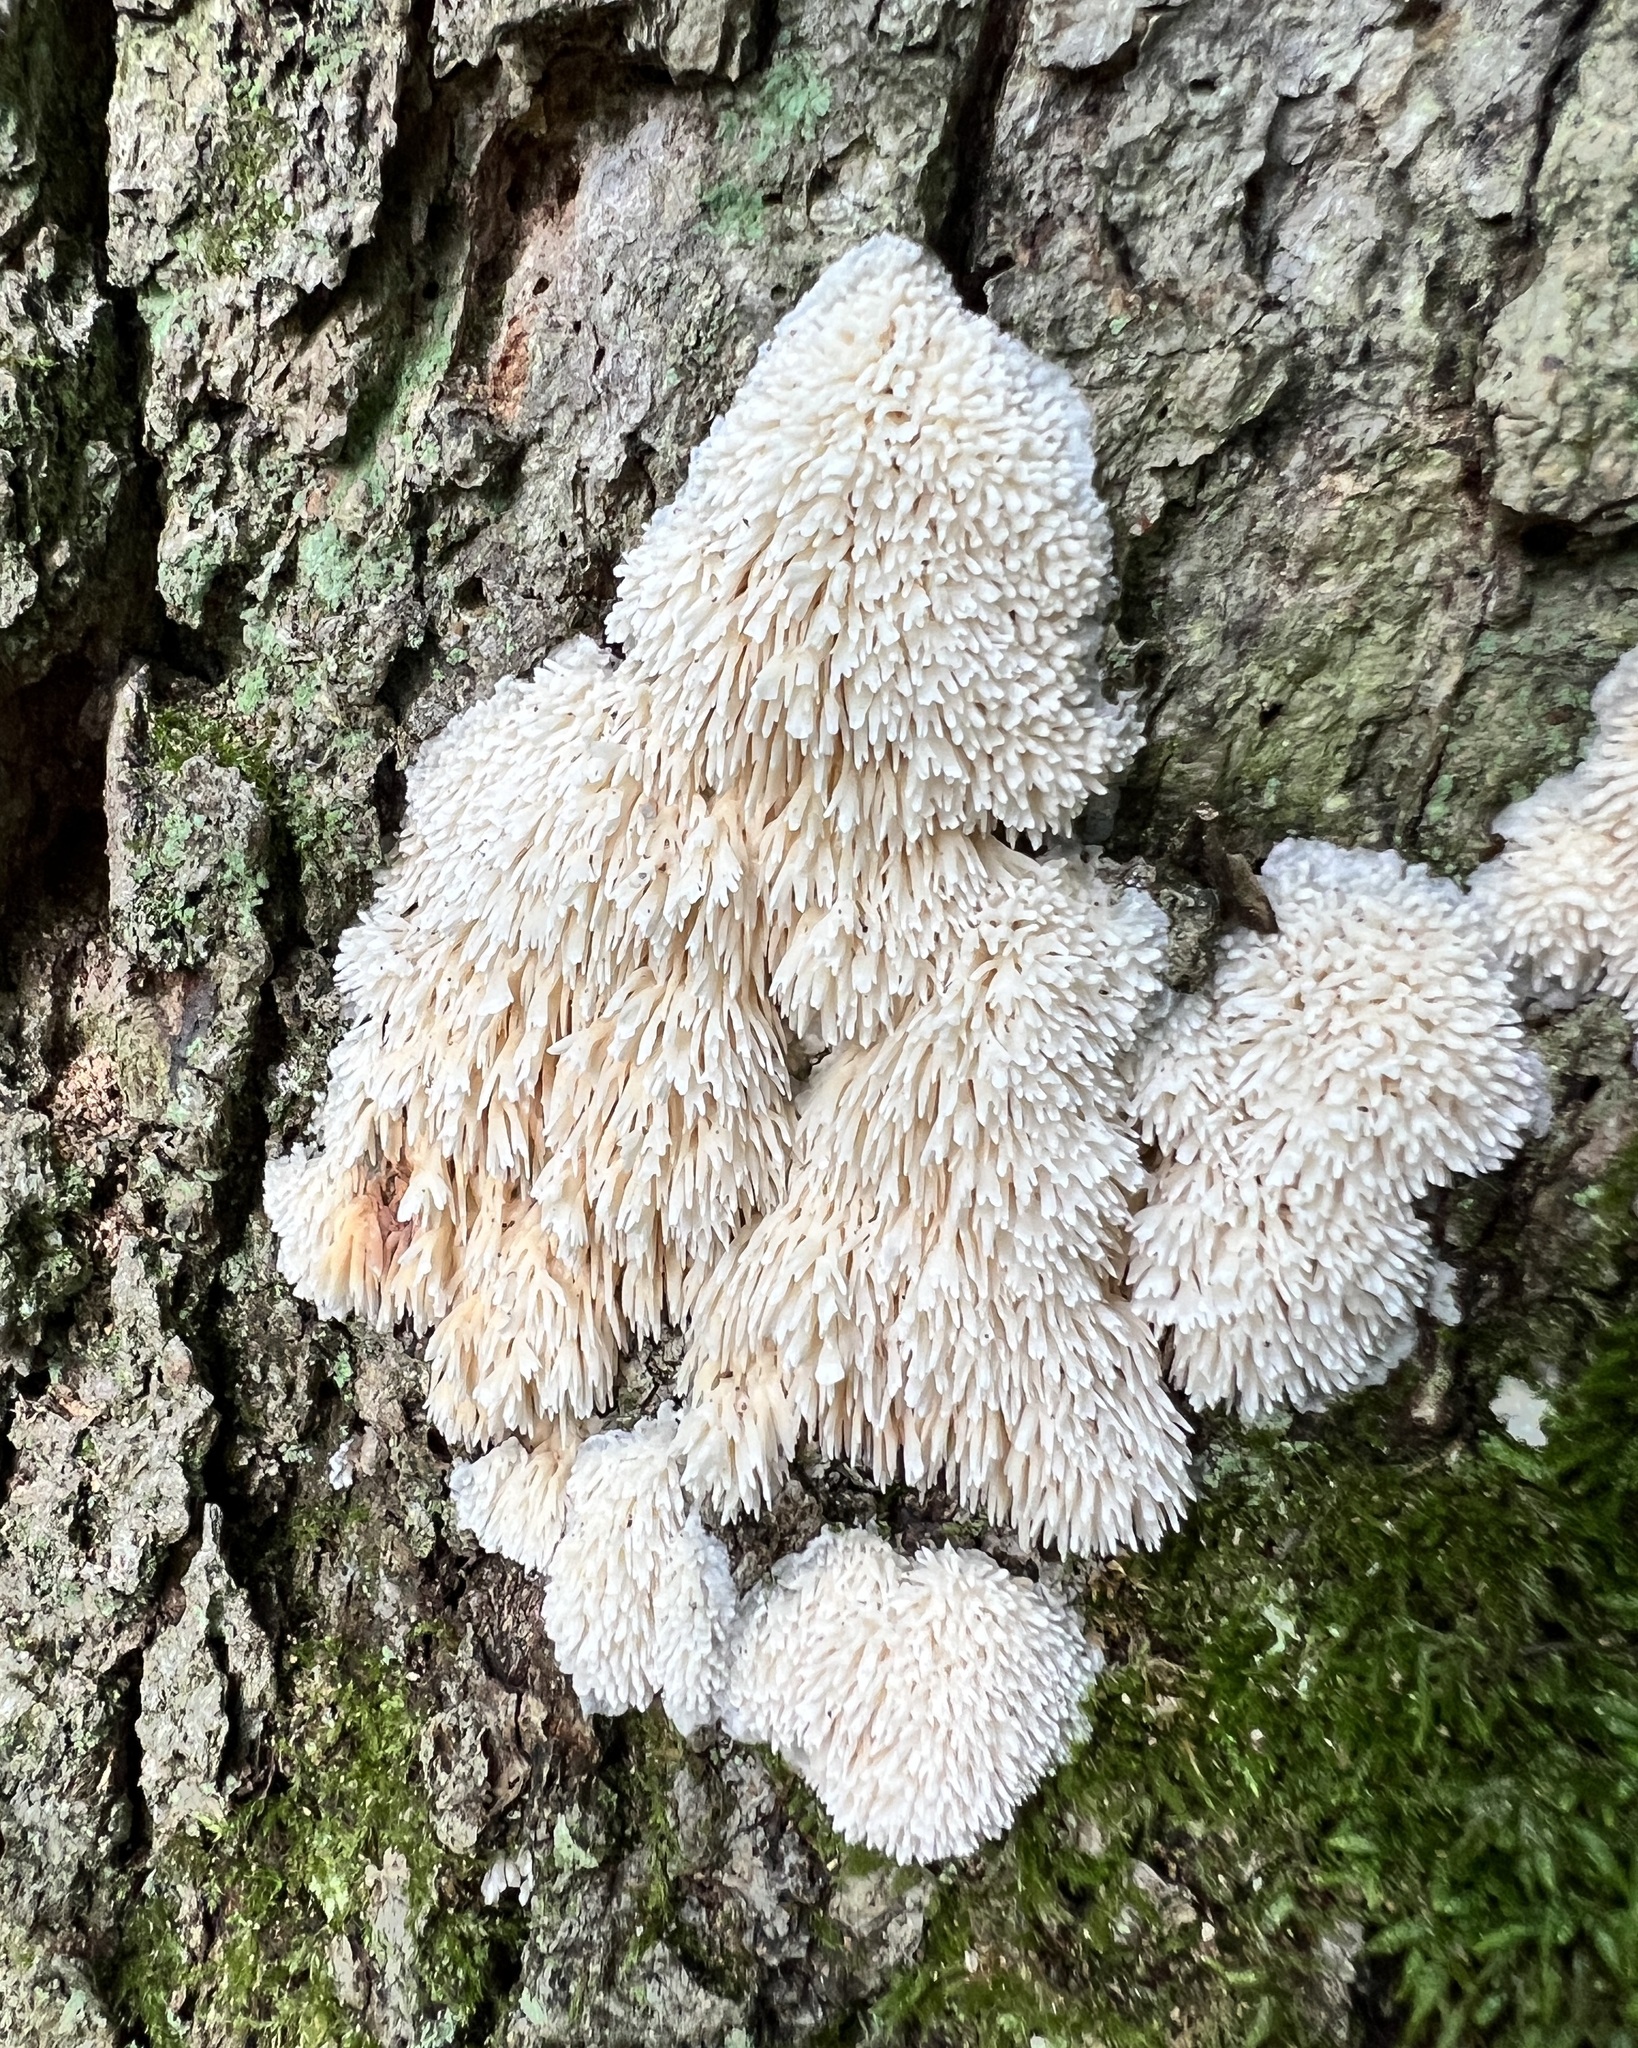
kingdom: Fungi
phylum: Basidiomycota
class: Agaricomycetes
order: Agaricales
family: Radulomycetaceae
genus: Radulomyces
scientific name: Radulomyces copelandii
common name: Asian beauty
